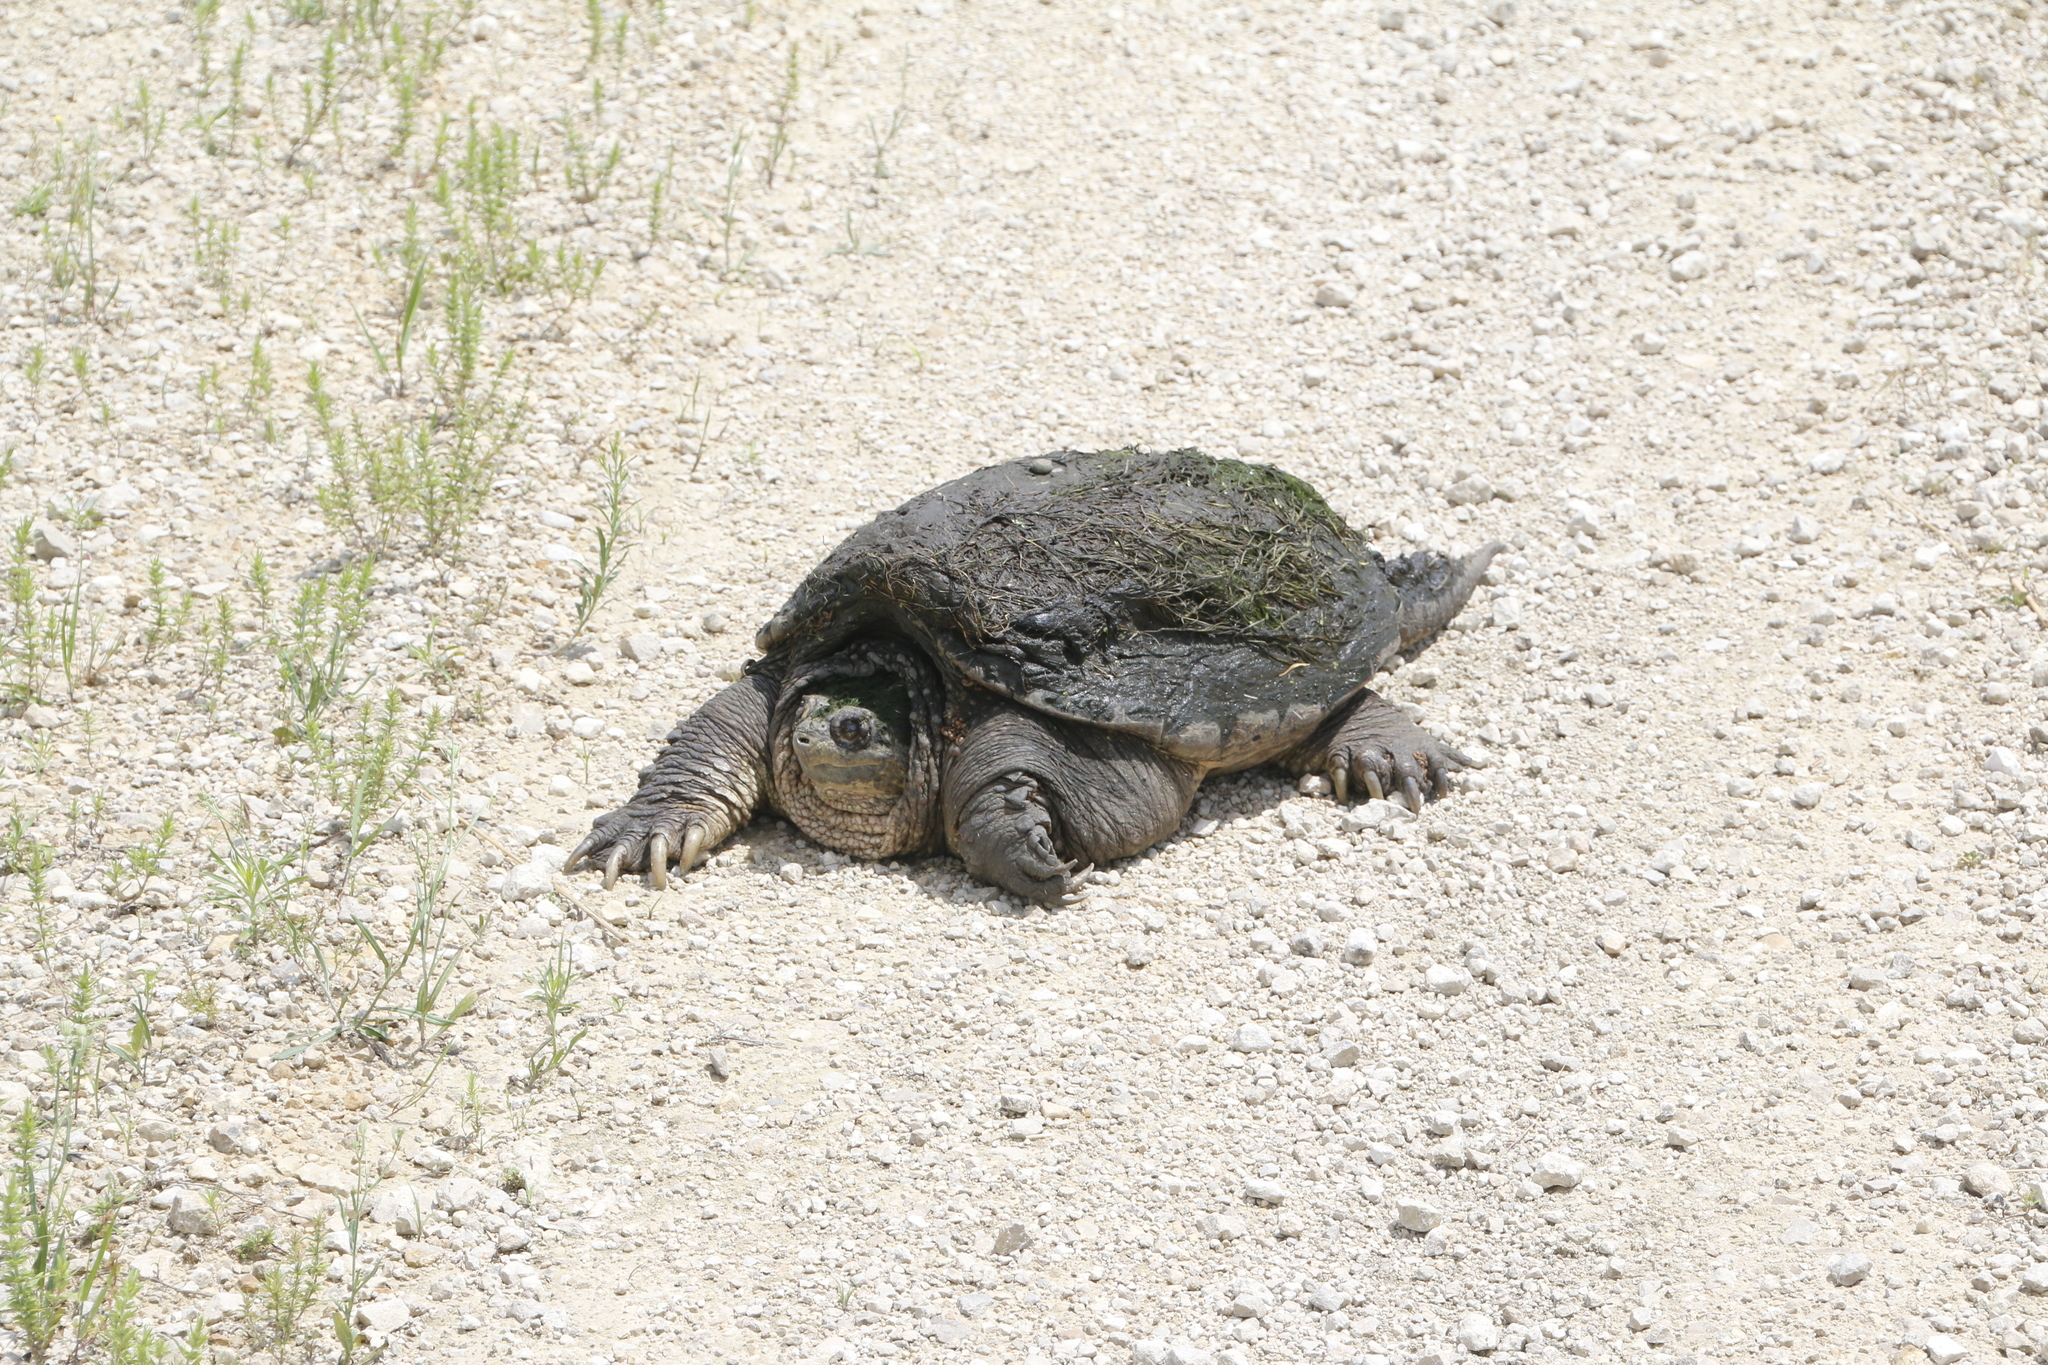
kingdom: Animalia
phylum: Chordata
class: Testudines
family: Chelydridae
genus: Chelydra
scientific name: Chelydra serpentina
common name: Common snapping turtle
